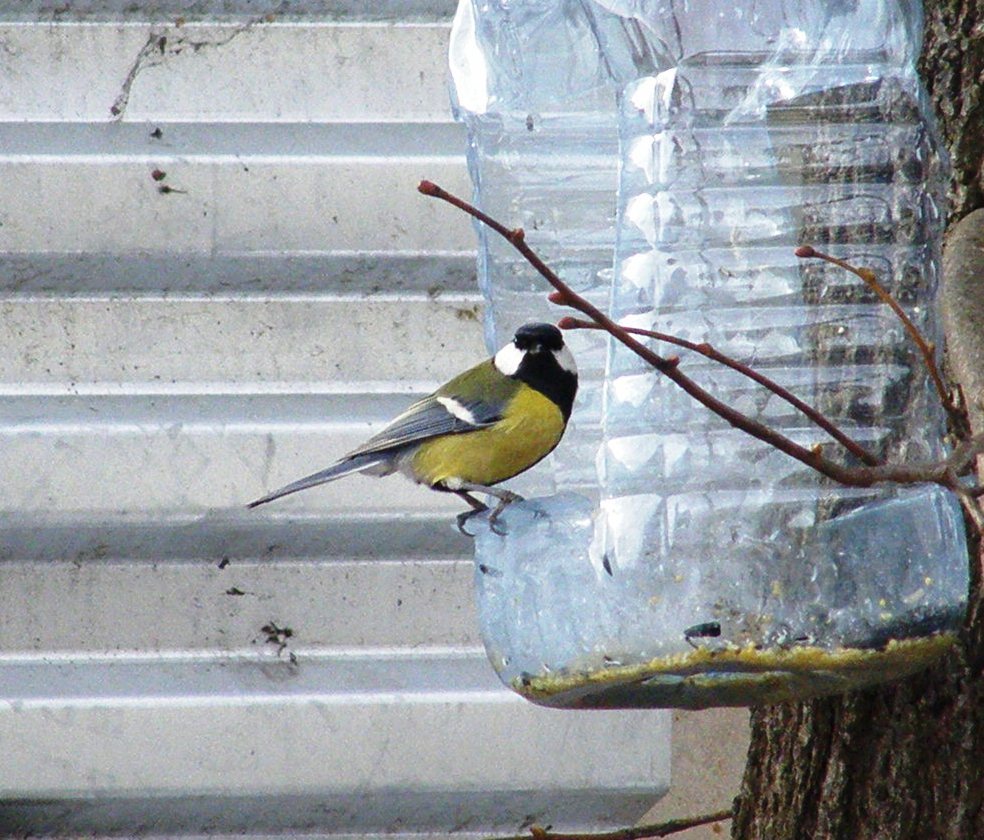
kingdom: Animalia
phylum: Chordata
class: Aves
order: Passeriformes
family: Paridae
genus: Parus
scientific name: Parus major
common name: Great tit
